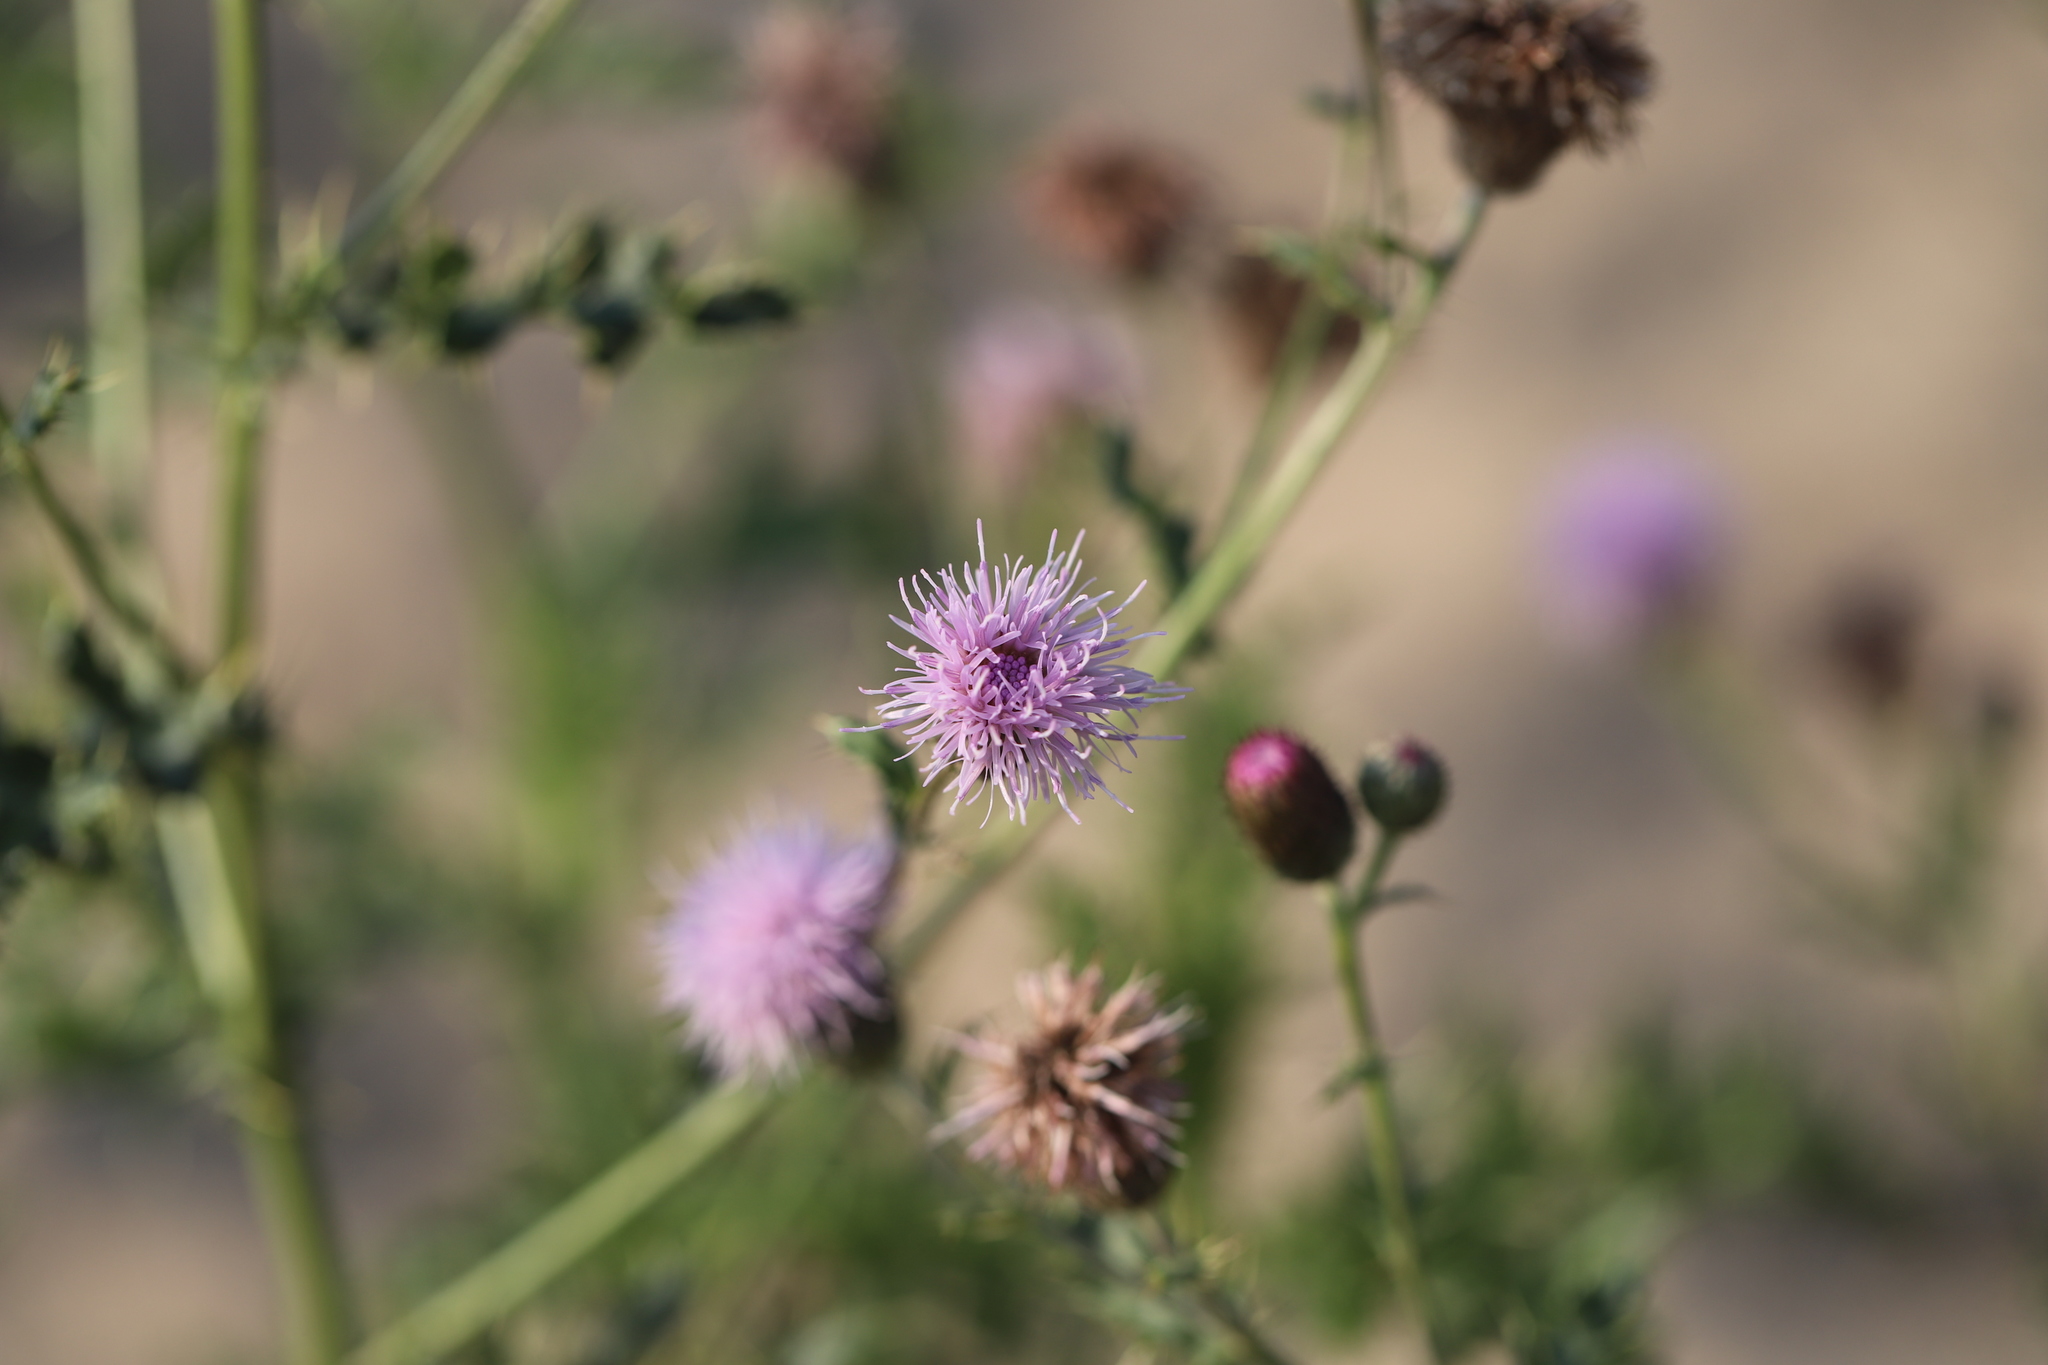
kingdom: Plantae
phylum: Tracheophyta
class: Magnoliopsida
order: Asterales
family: Asteraceae
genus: Cirsium
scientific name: Cirsium arvense
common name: Creeping thistle
